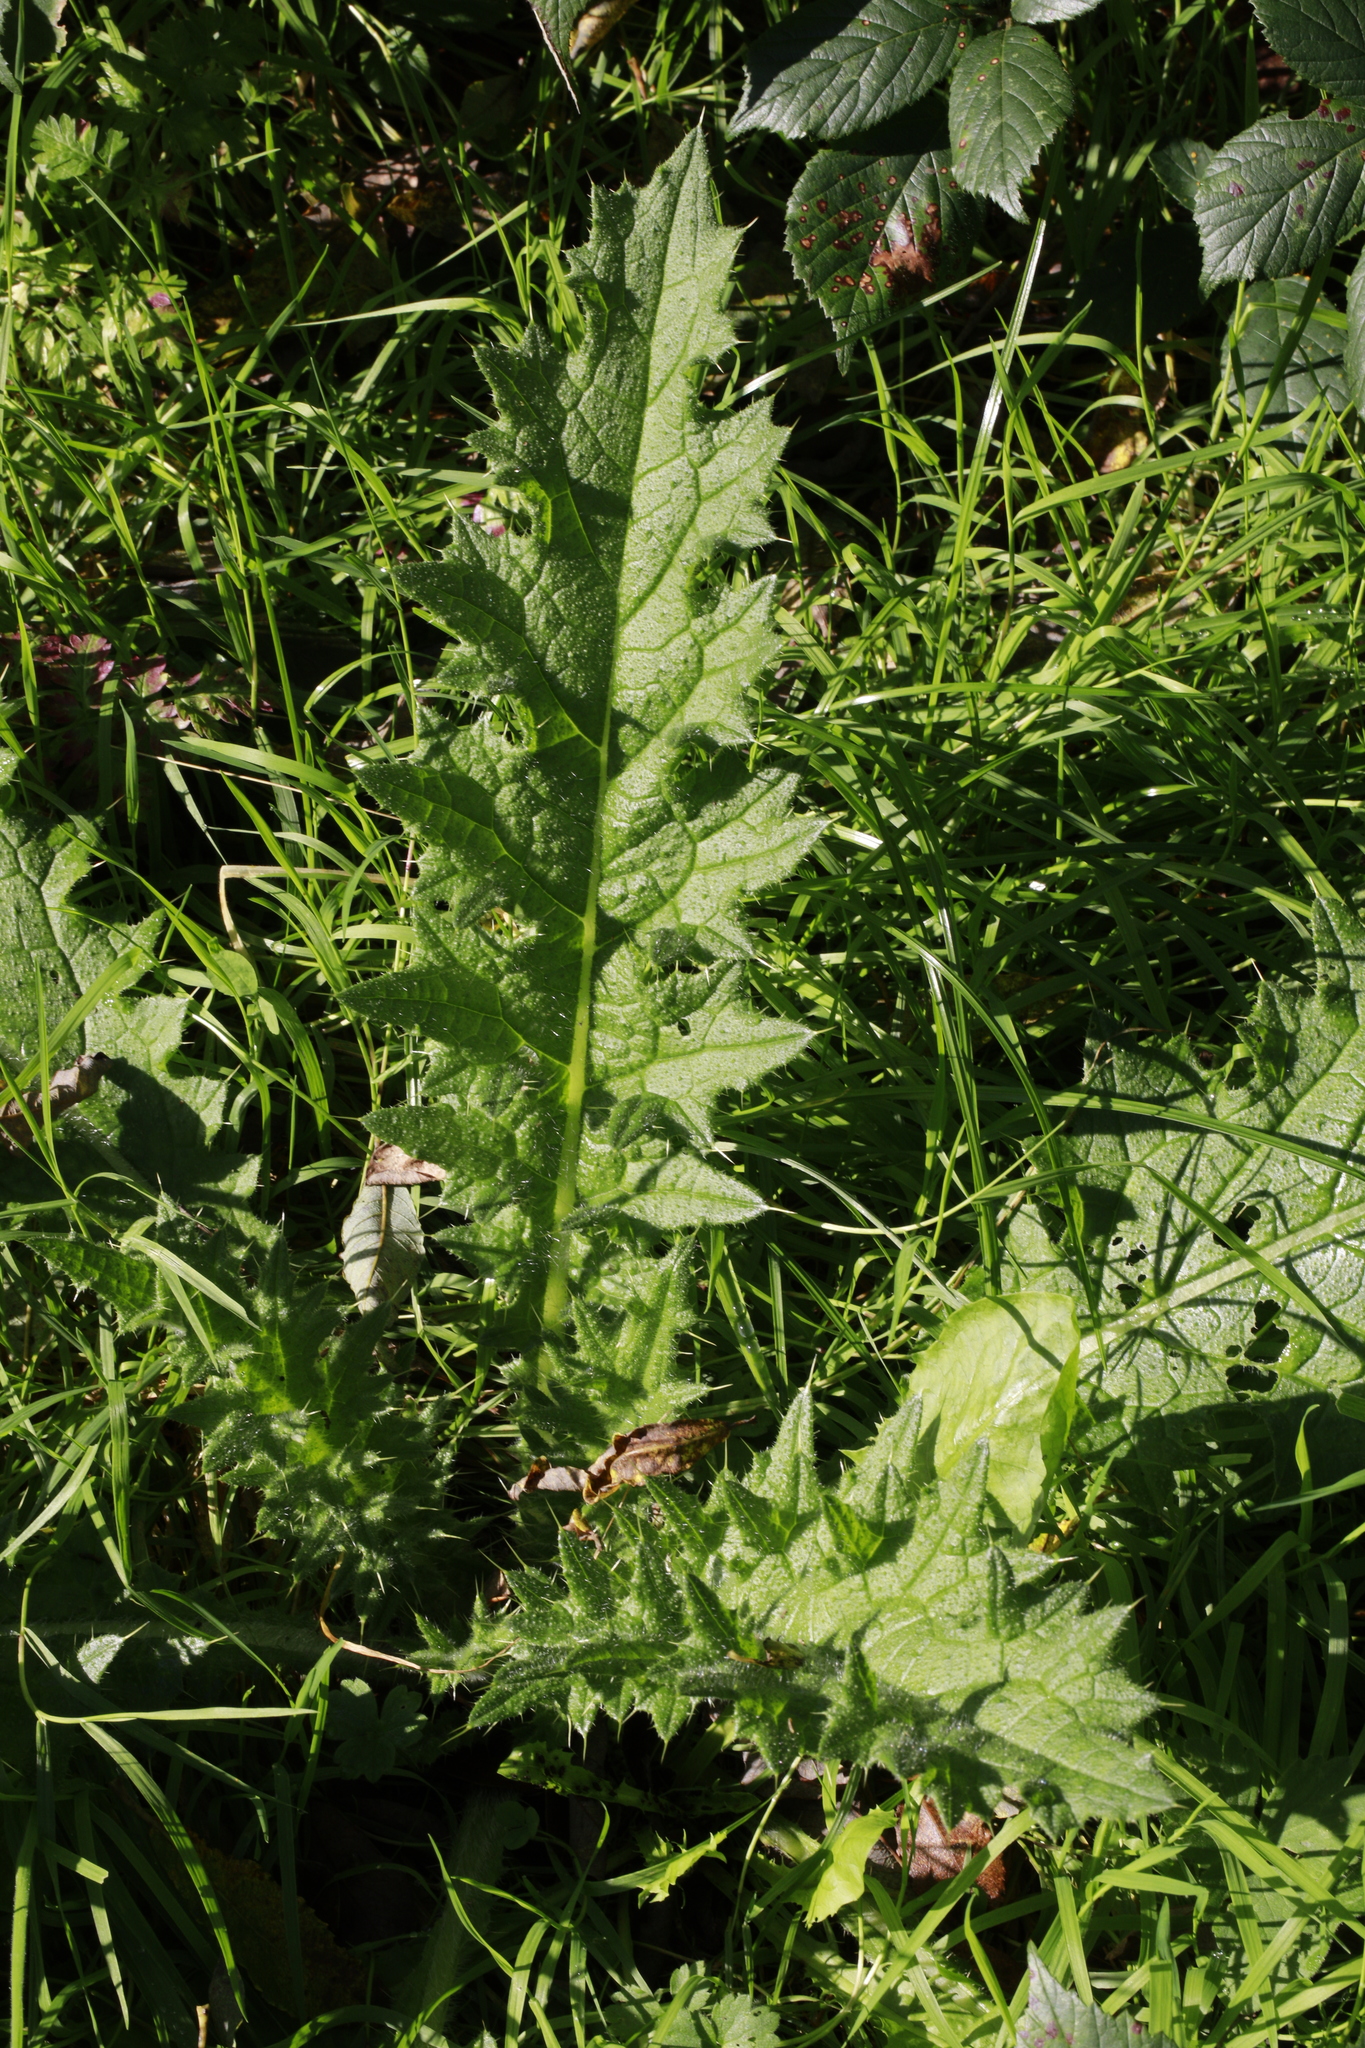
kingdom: Plantae
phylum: Tracheophyta
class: Magnoliopsida
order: Asterales
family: Asteraceae
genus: Cirsium
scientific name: Cirsium vulgare
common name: Bull thistle
